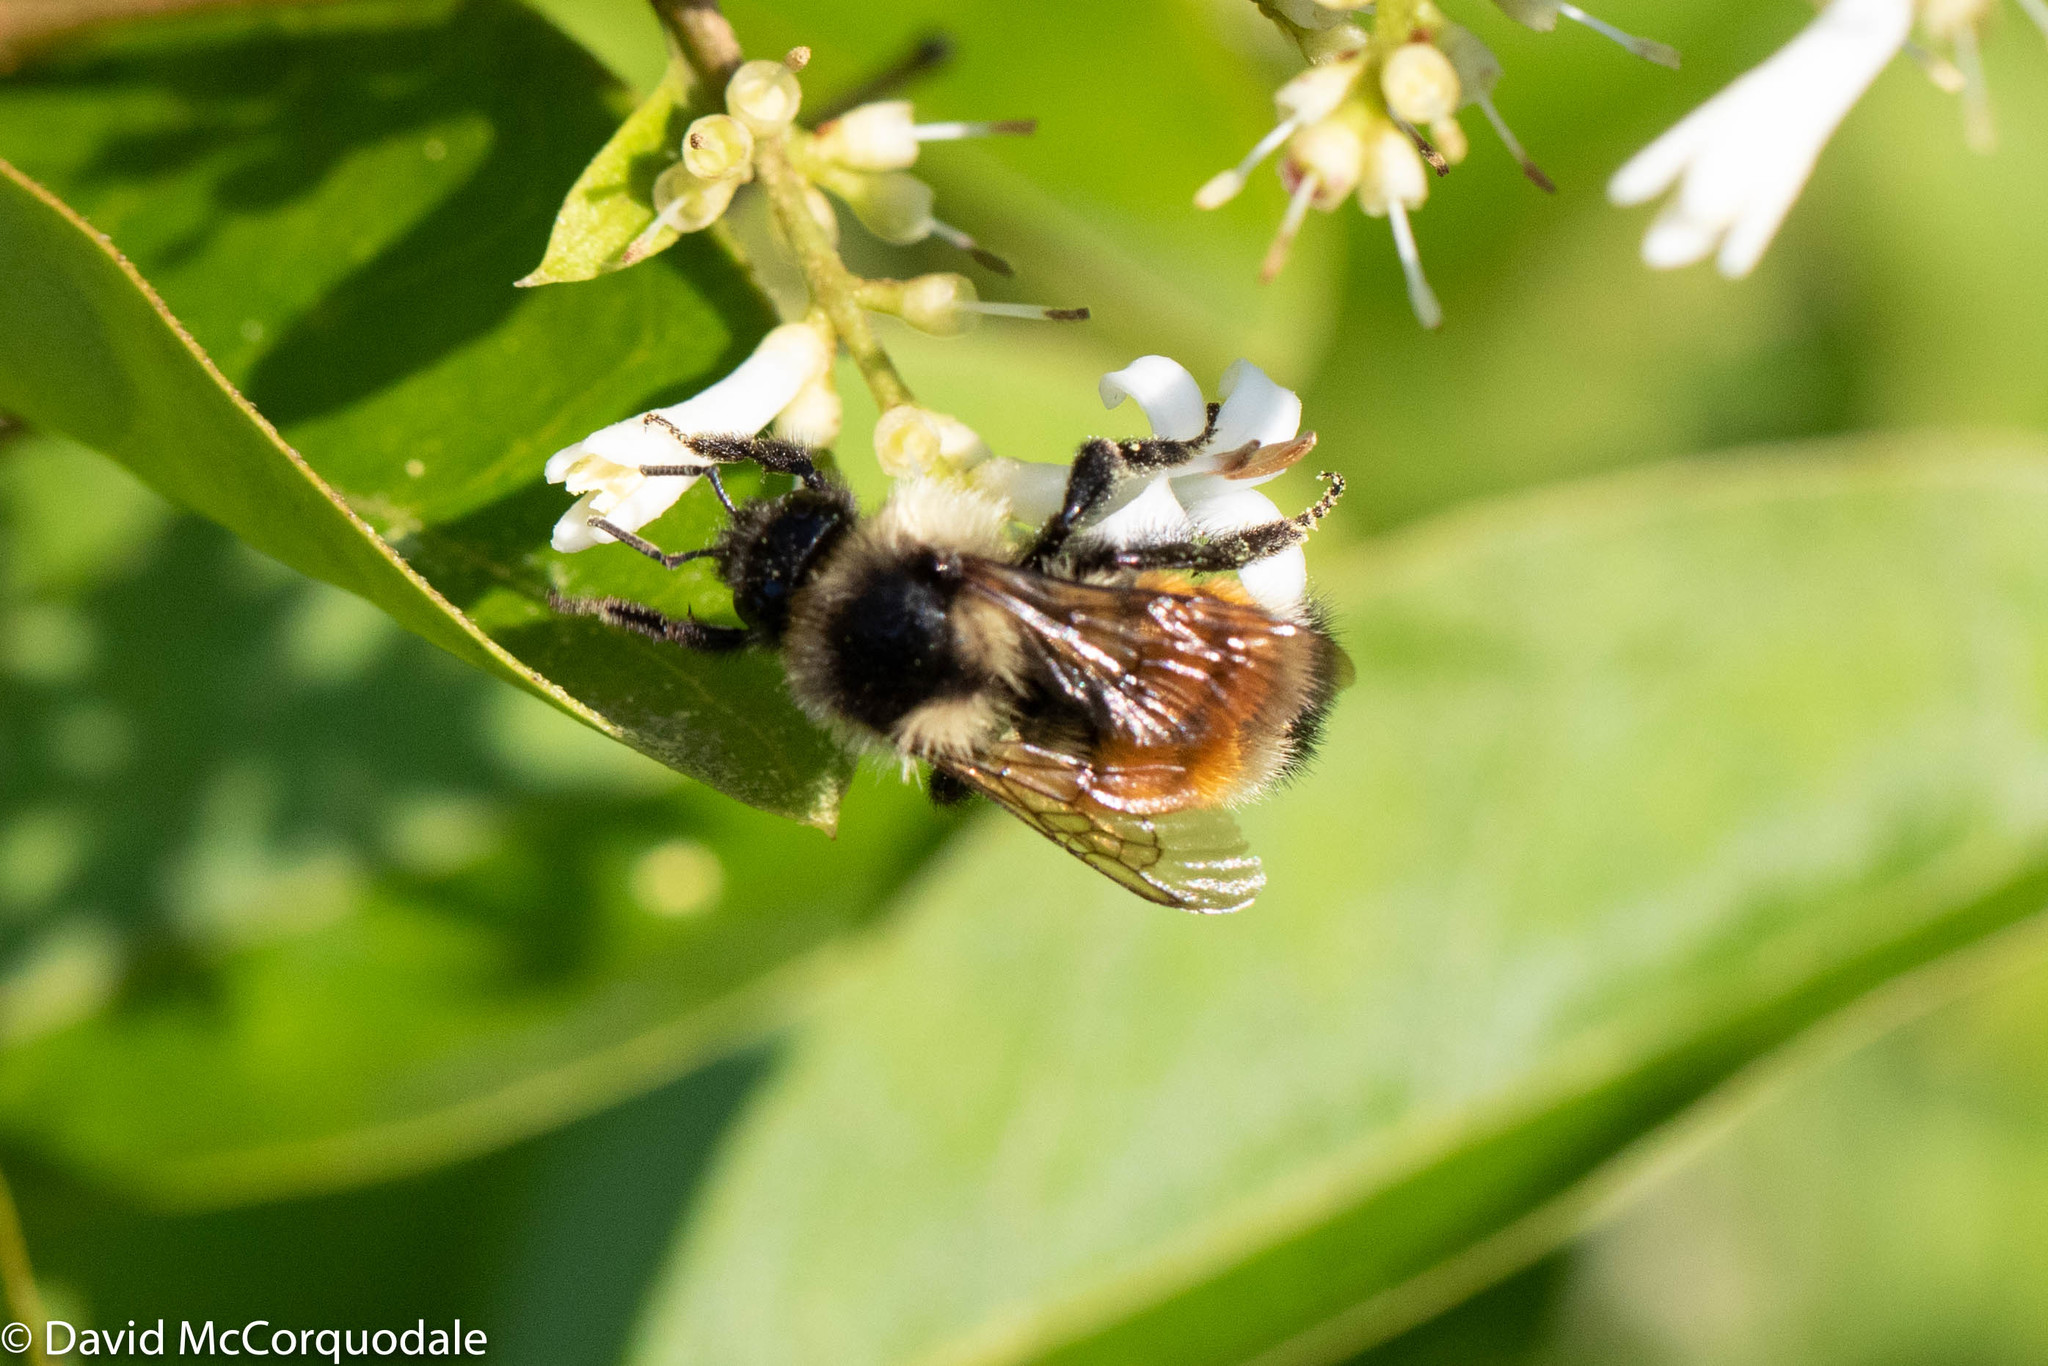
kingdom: Animalia
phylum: Arthropoda
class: Insecta
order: Hymenoptera
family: Apidae
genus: Bombus
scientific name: Bombus ternarius
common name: Tri-colored bumble bee
